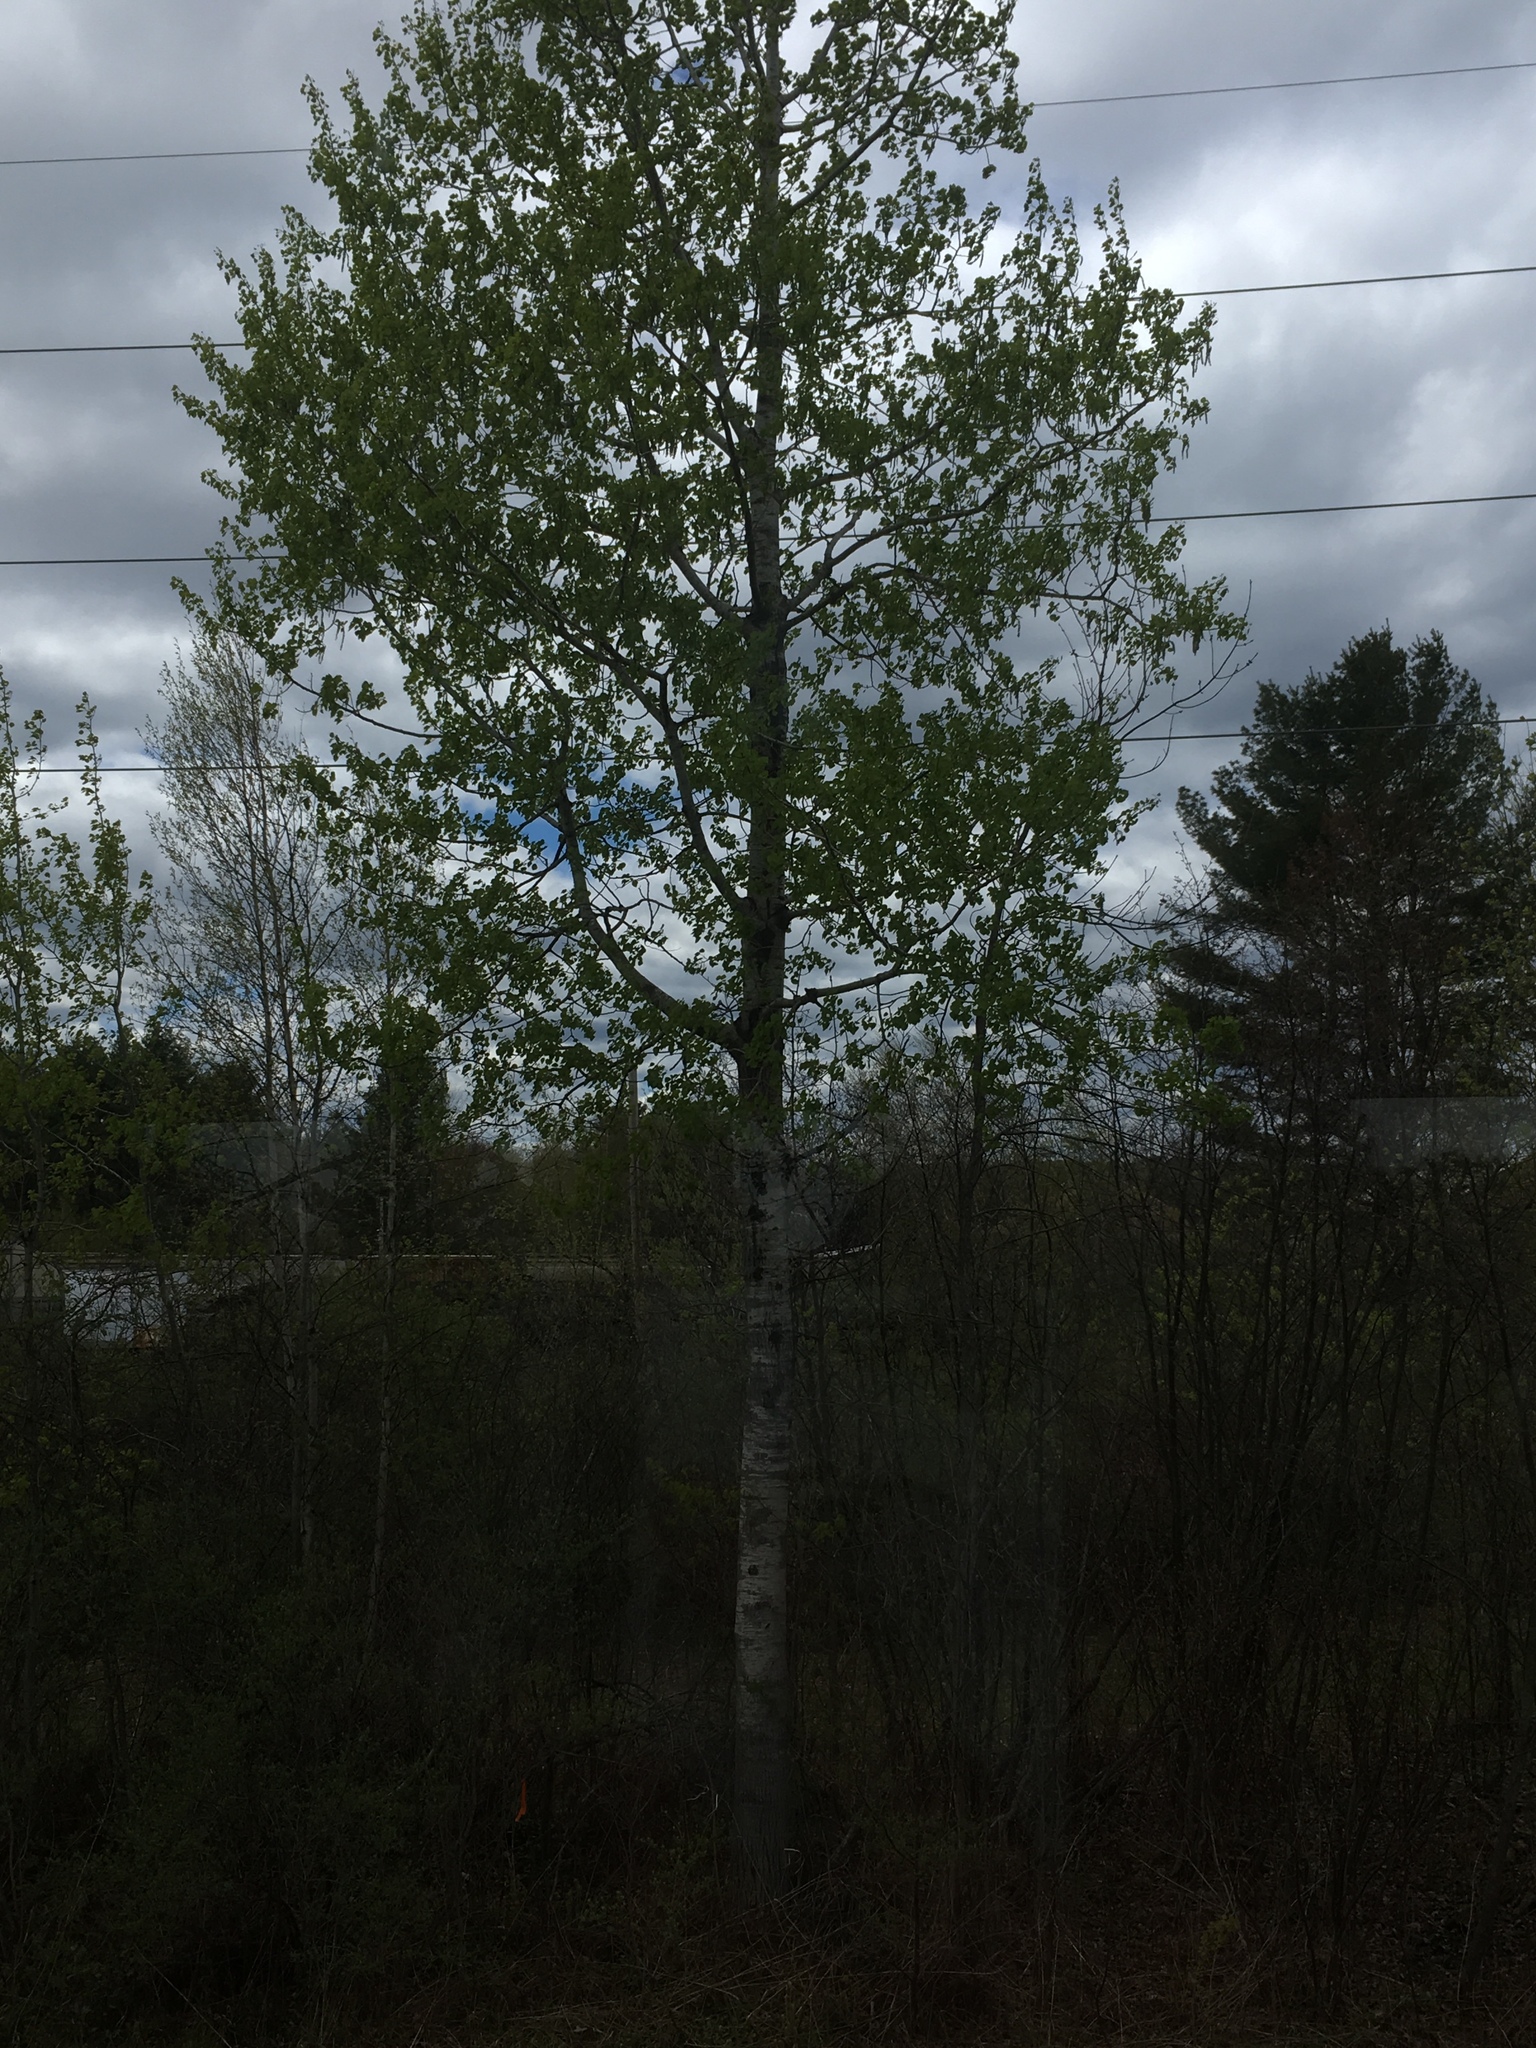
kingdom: Plantae
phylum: Tracheophyta
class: Magnoliopsida
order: Malpighiales
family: Salicaceae
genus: Populus
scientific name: Populus tremuloides
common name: Quaking aspen
